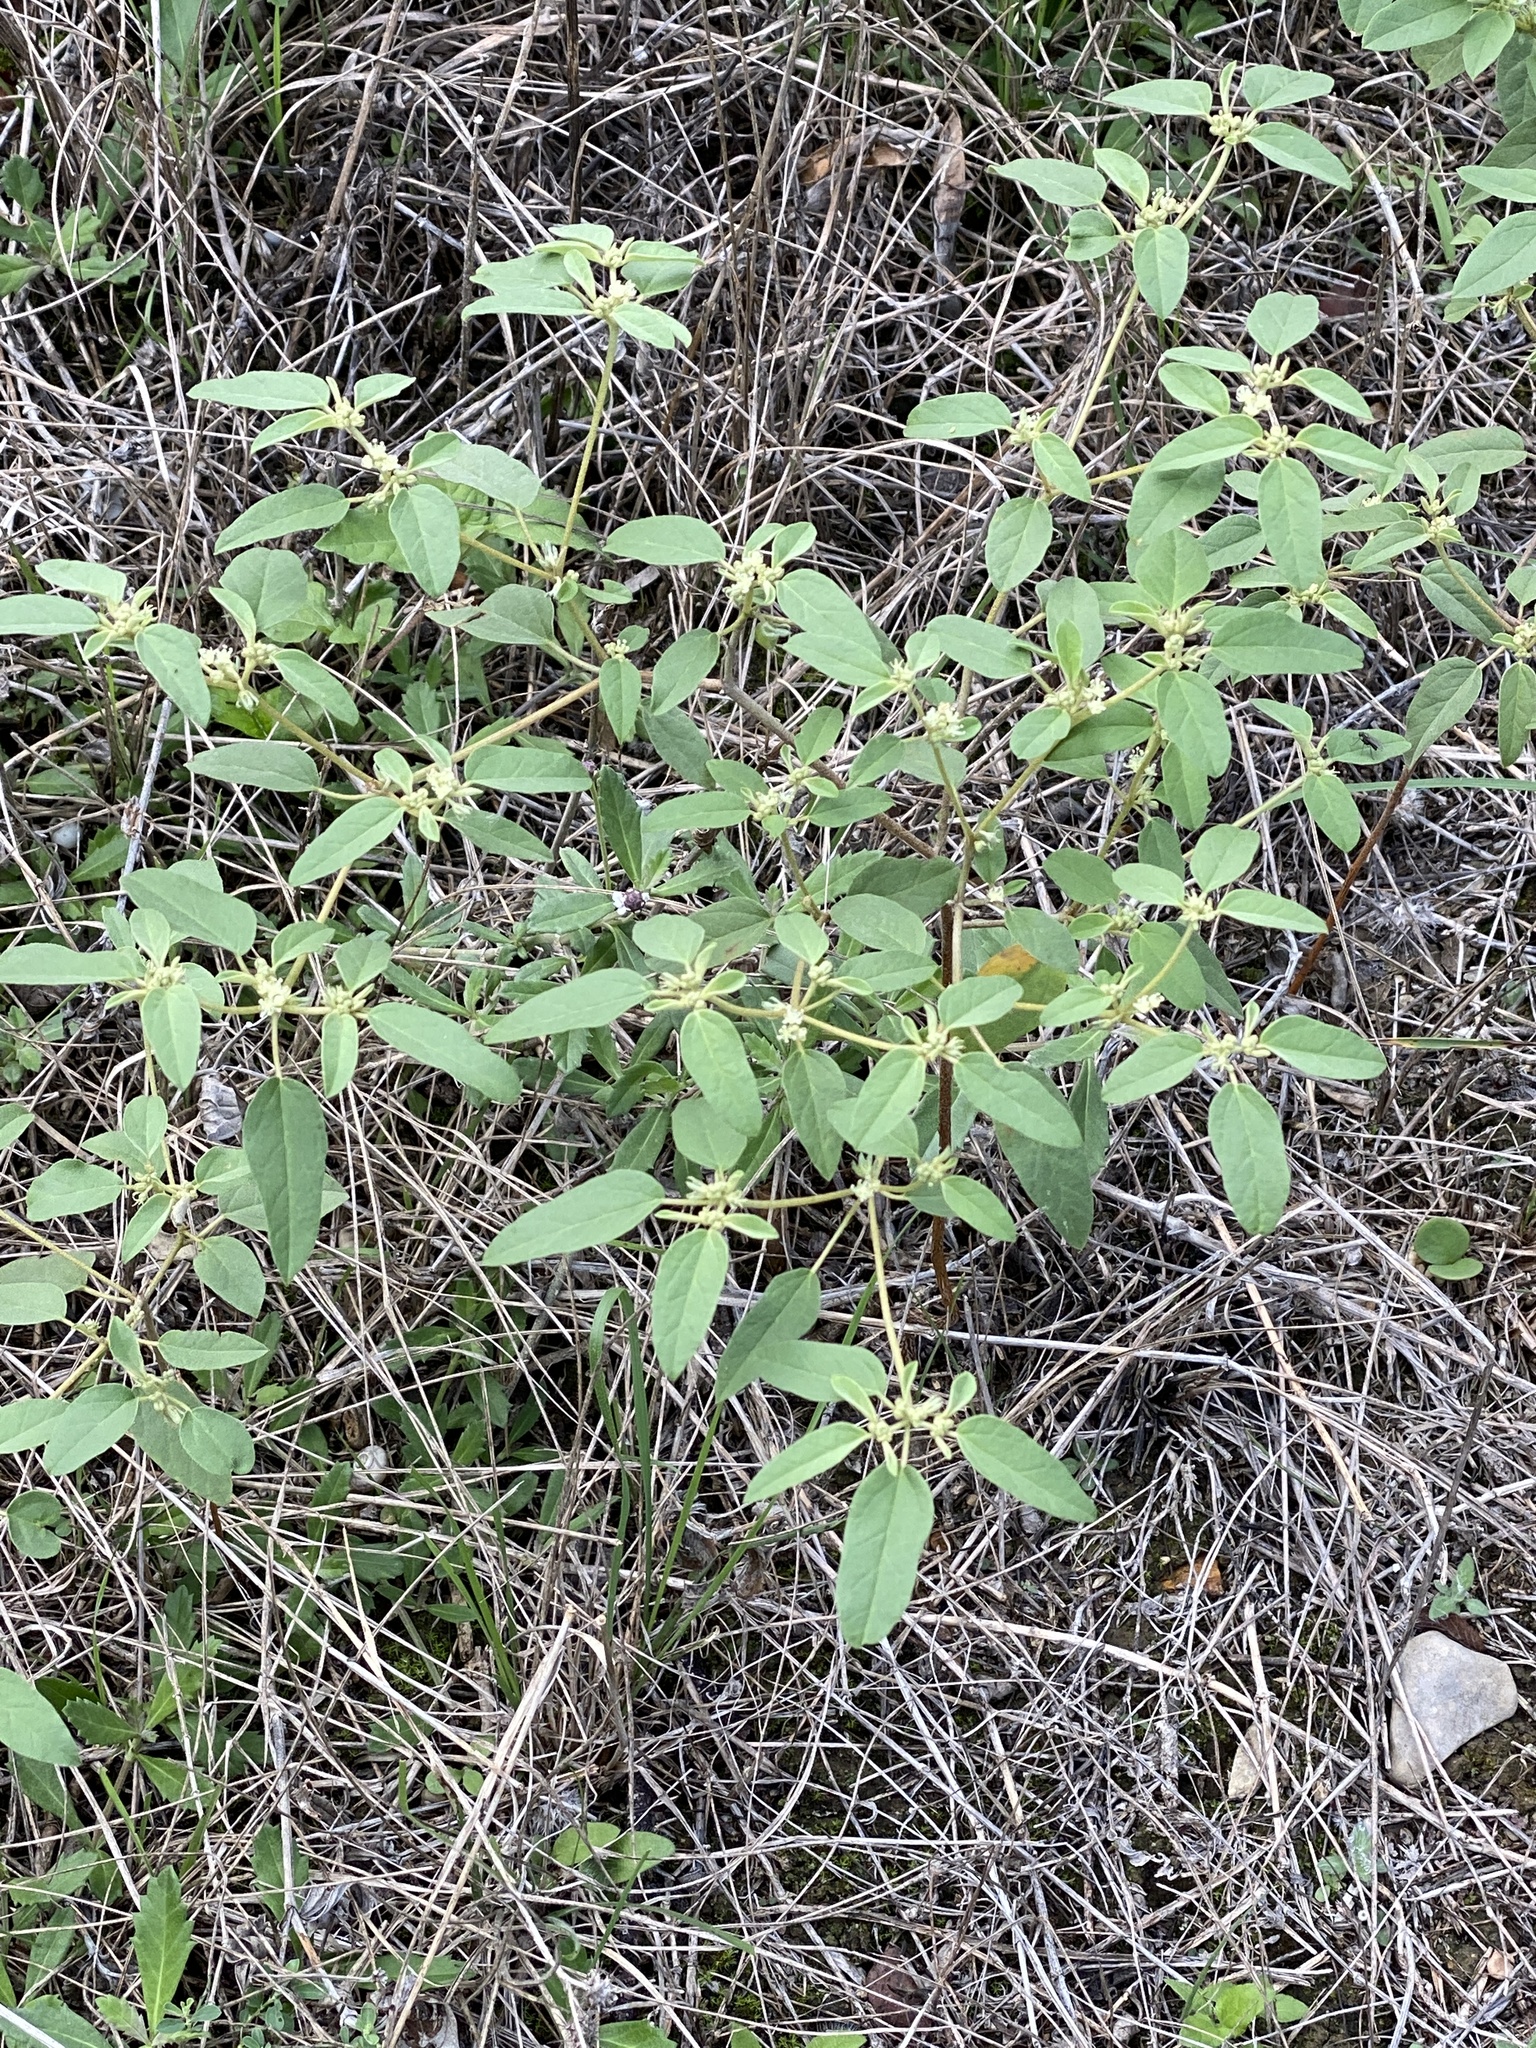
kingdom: Plantae
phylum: Tracheophyta
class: Magnoliopsida
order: Malpighiales
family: Euphorbiaceae
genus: Croton
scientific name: Croton monanthogynus
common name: One-seed croton
